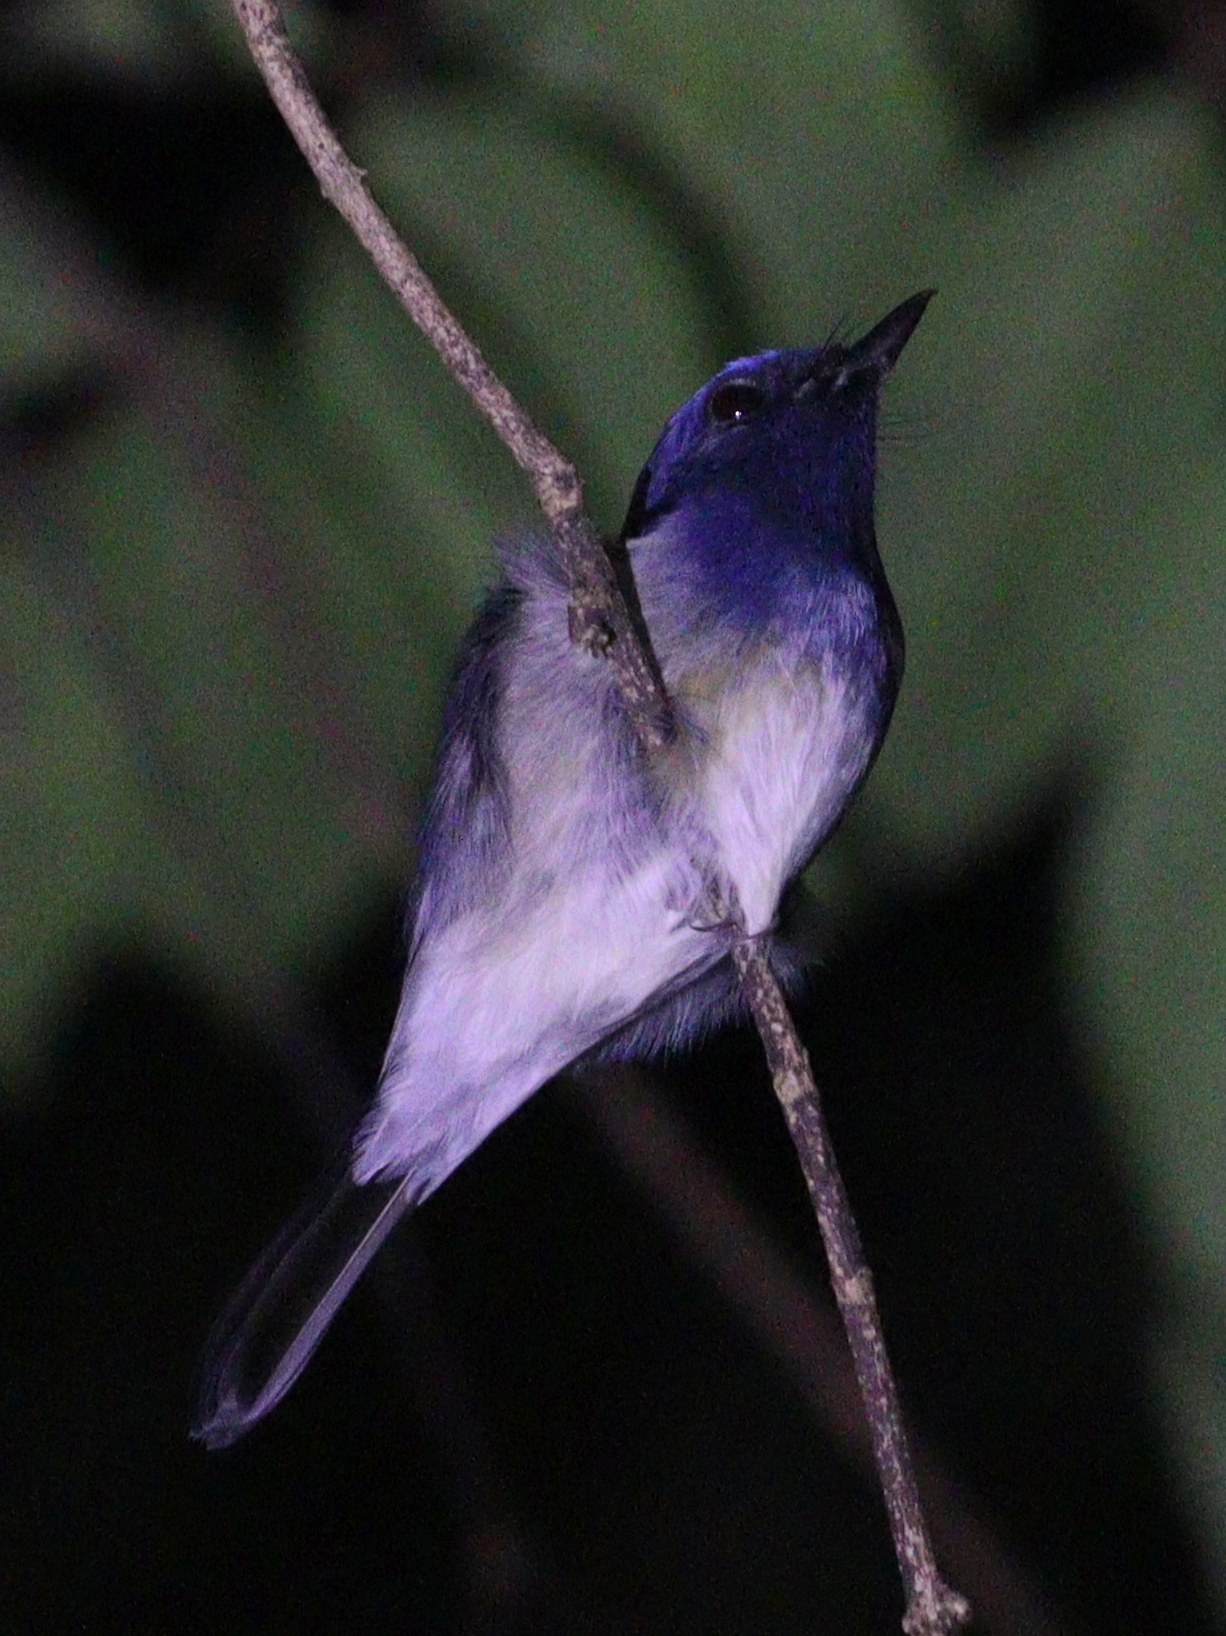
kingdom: Animalia
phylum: Chordata
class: Aves
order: Passeriformes
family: Muscicapidae
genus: Cyornis
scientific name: Cyornis hainanus
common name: Hainan blue flycatcher
